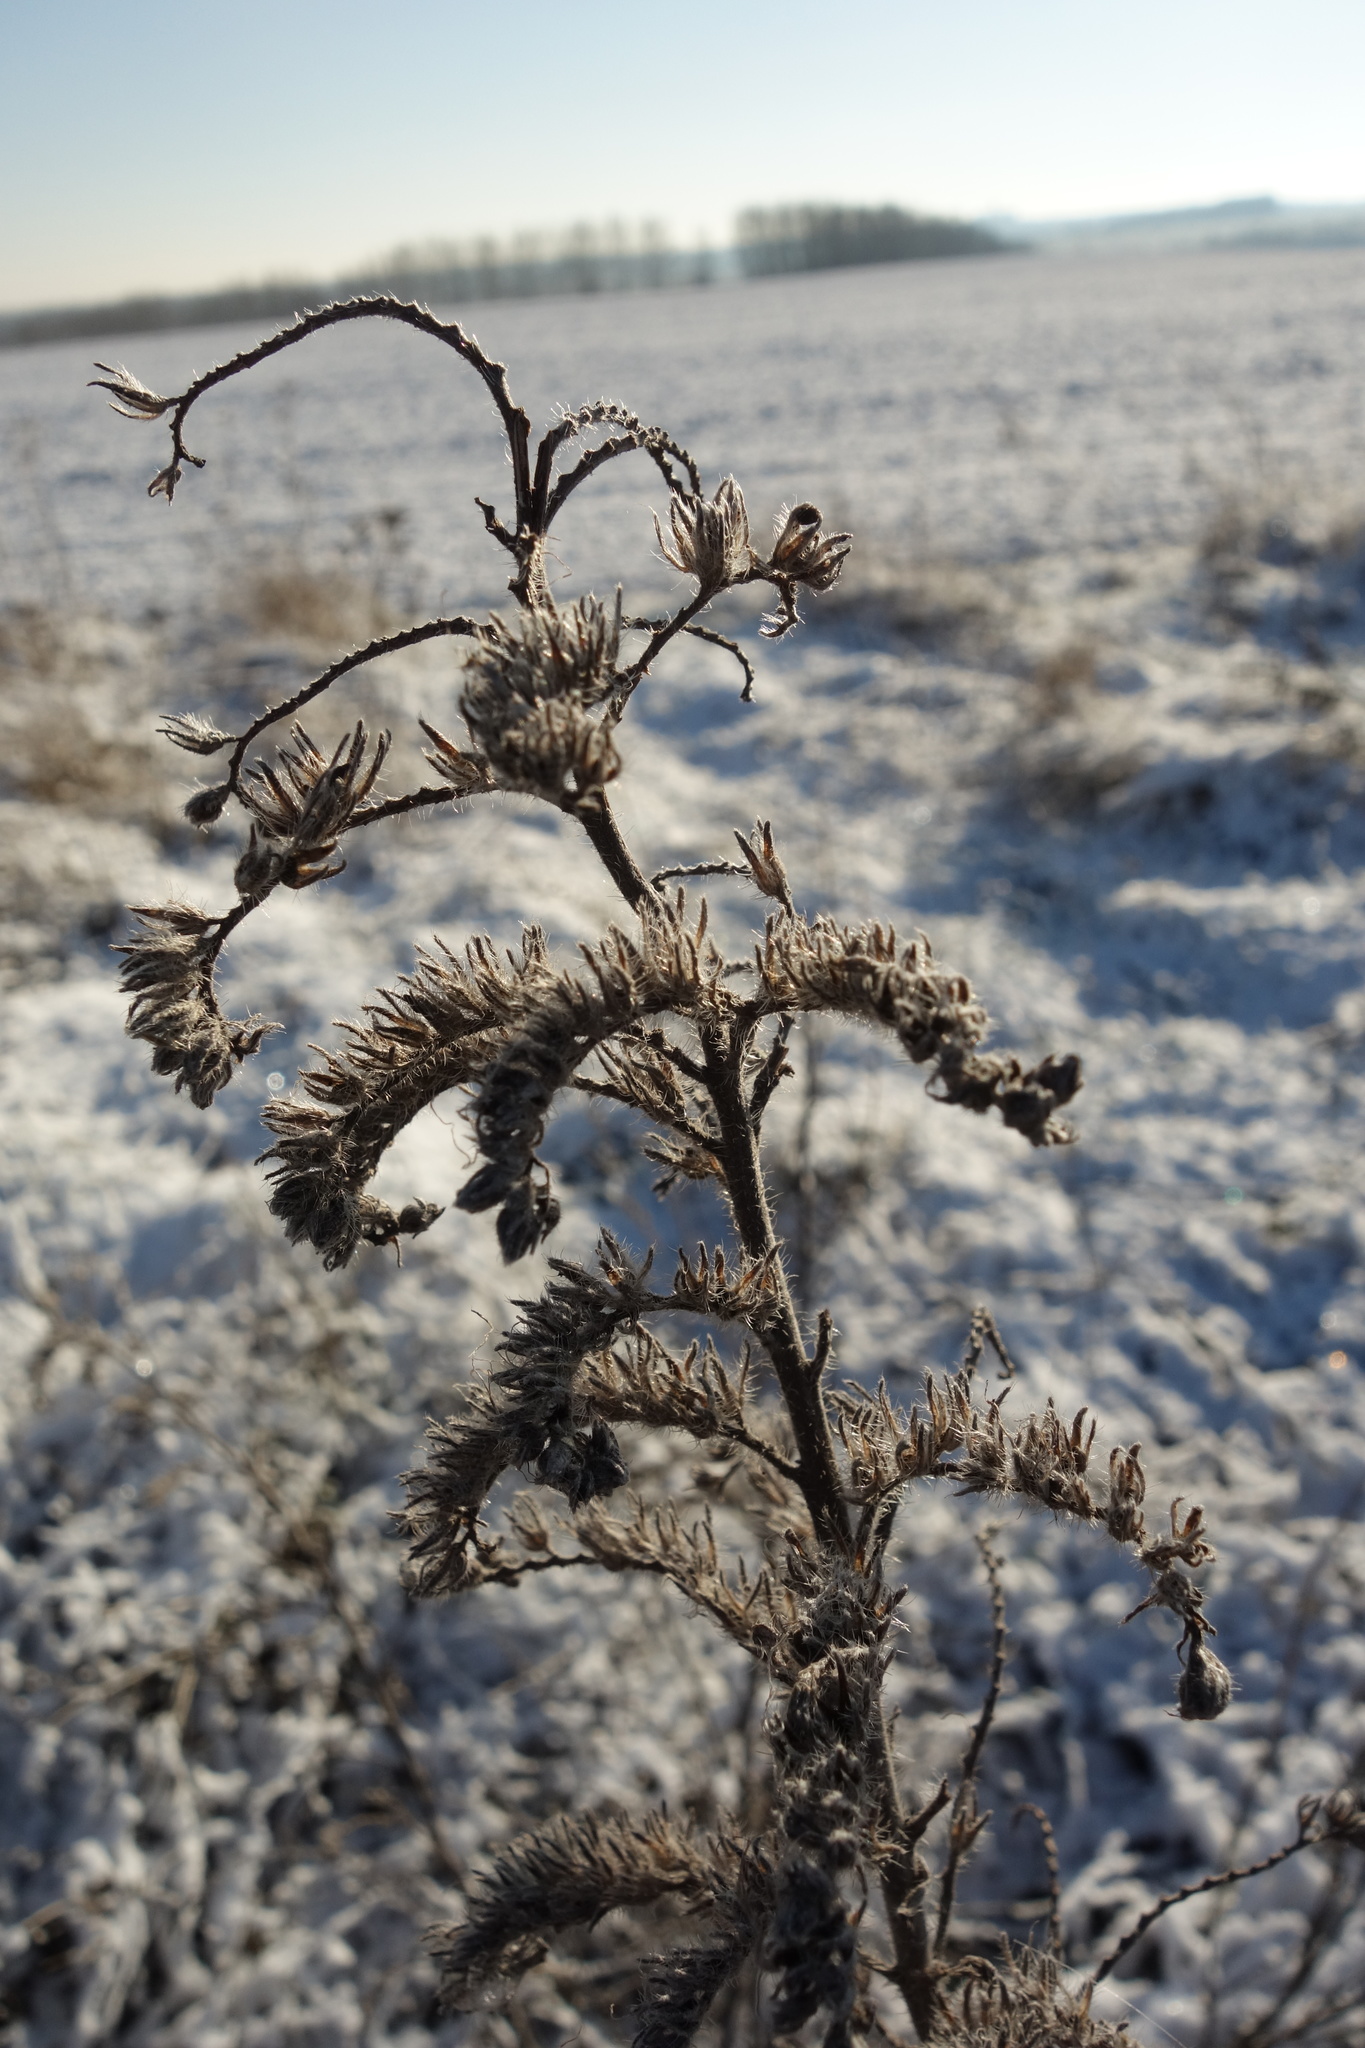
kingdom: Plantae
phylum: Tracheophyta
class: Magnoliopsida
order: Boraginales
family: Boraginaceae
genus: Echium
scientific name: Echium vulgare
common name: Common viper's bugloss
